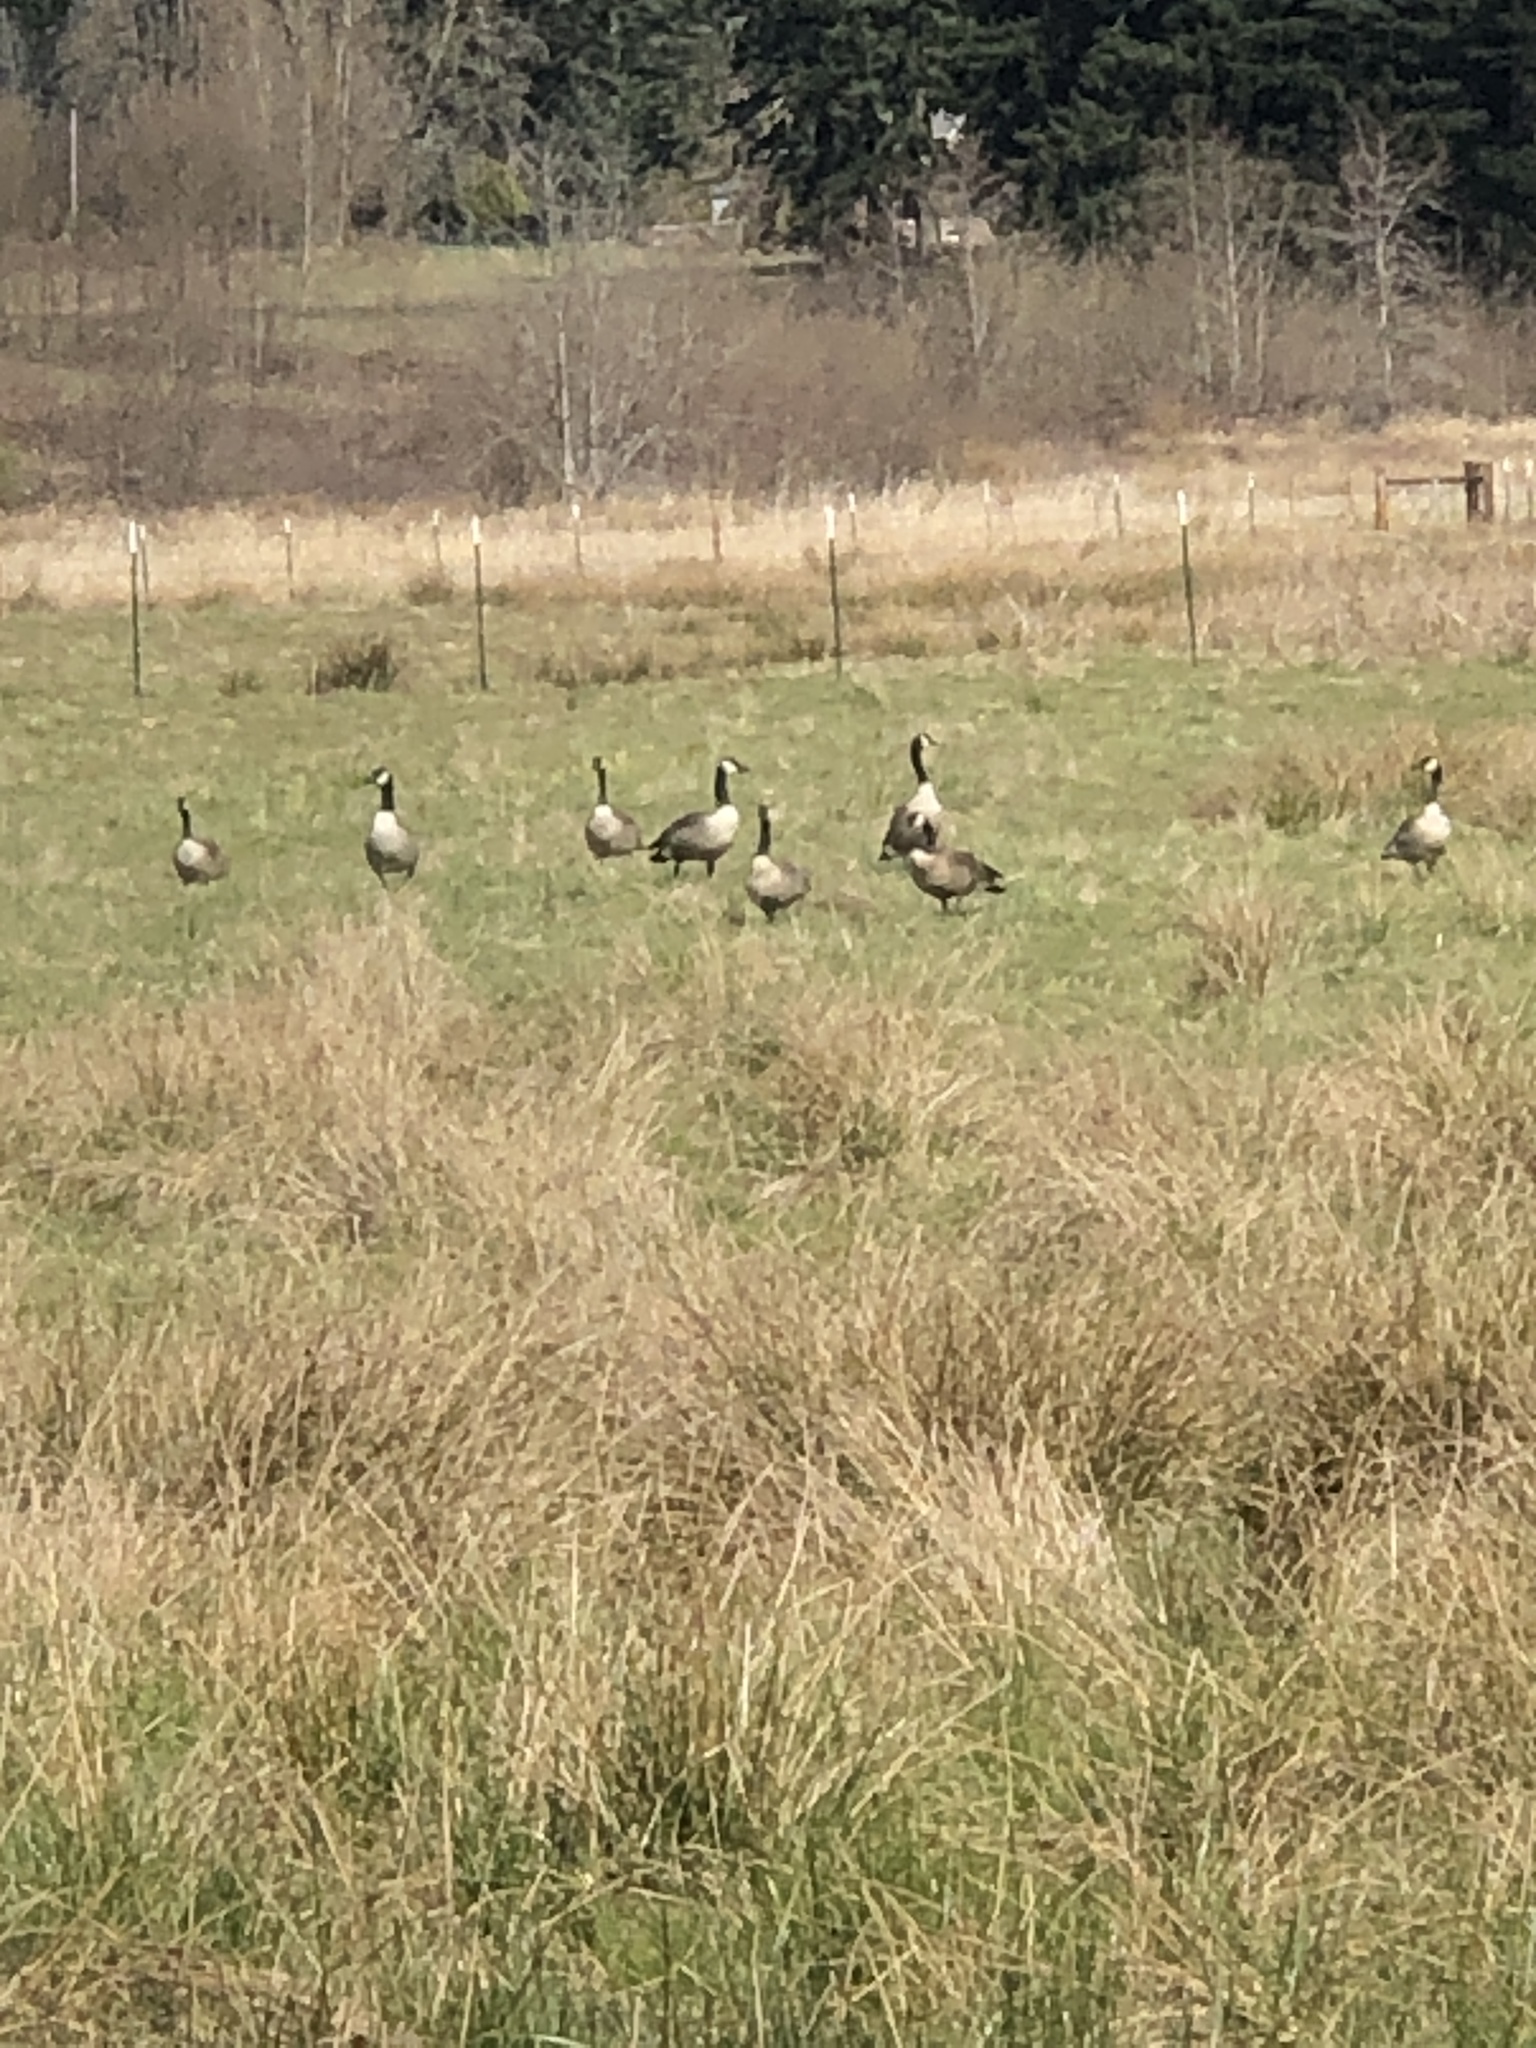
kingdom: Animalia
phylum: Chordata
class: Aves
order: Anseriformes
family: Anatidae
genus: Branta
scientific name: Branta canadensis
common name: Canada goose
